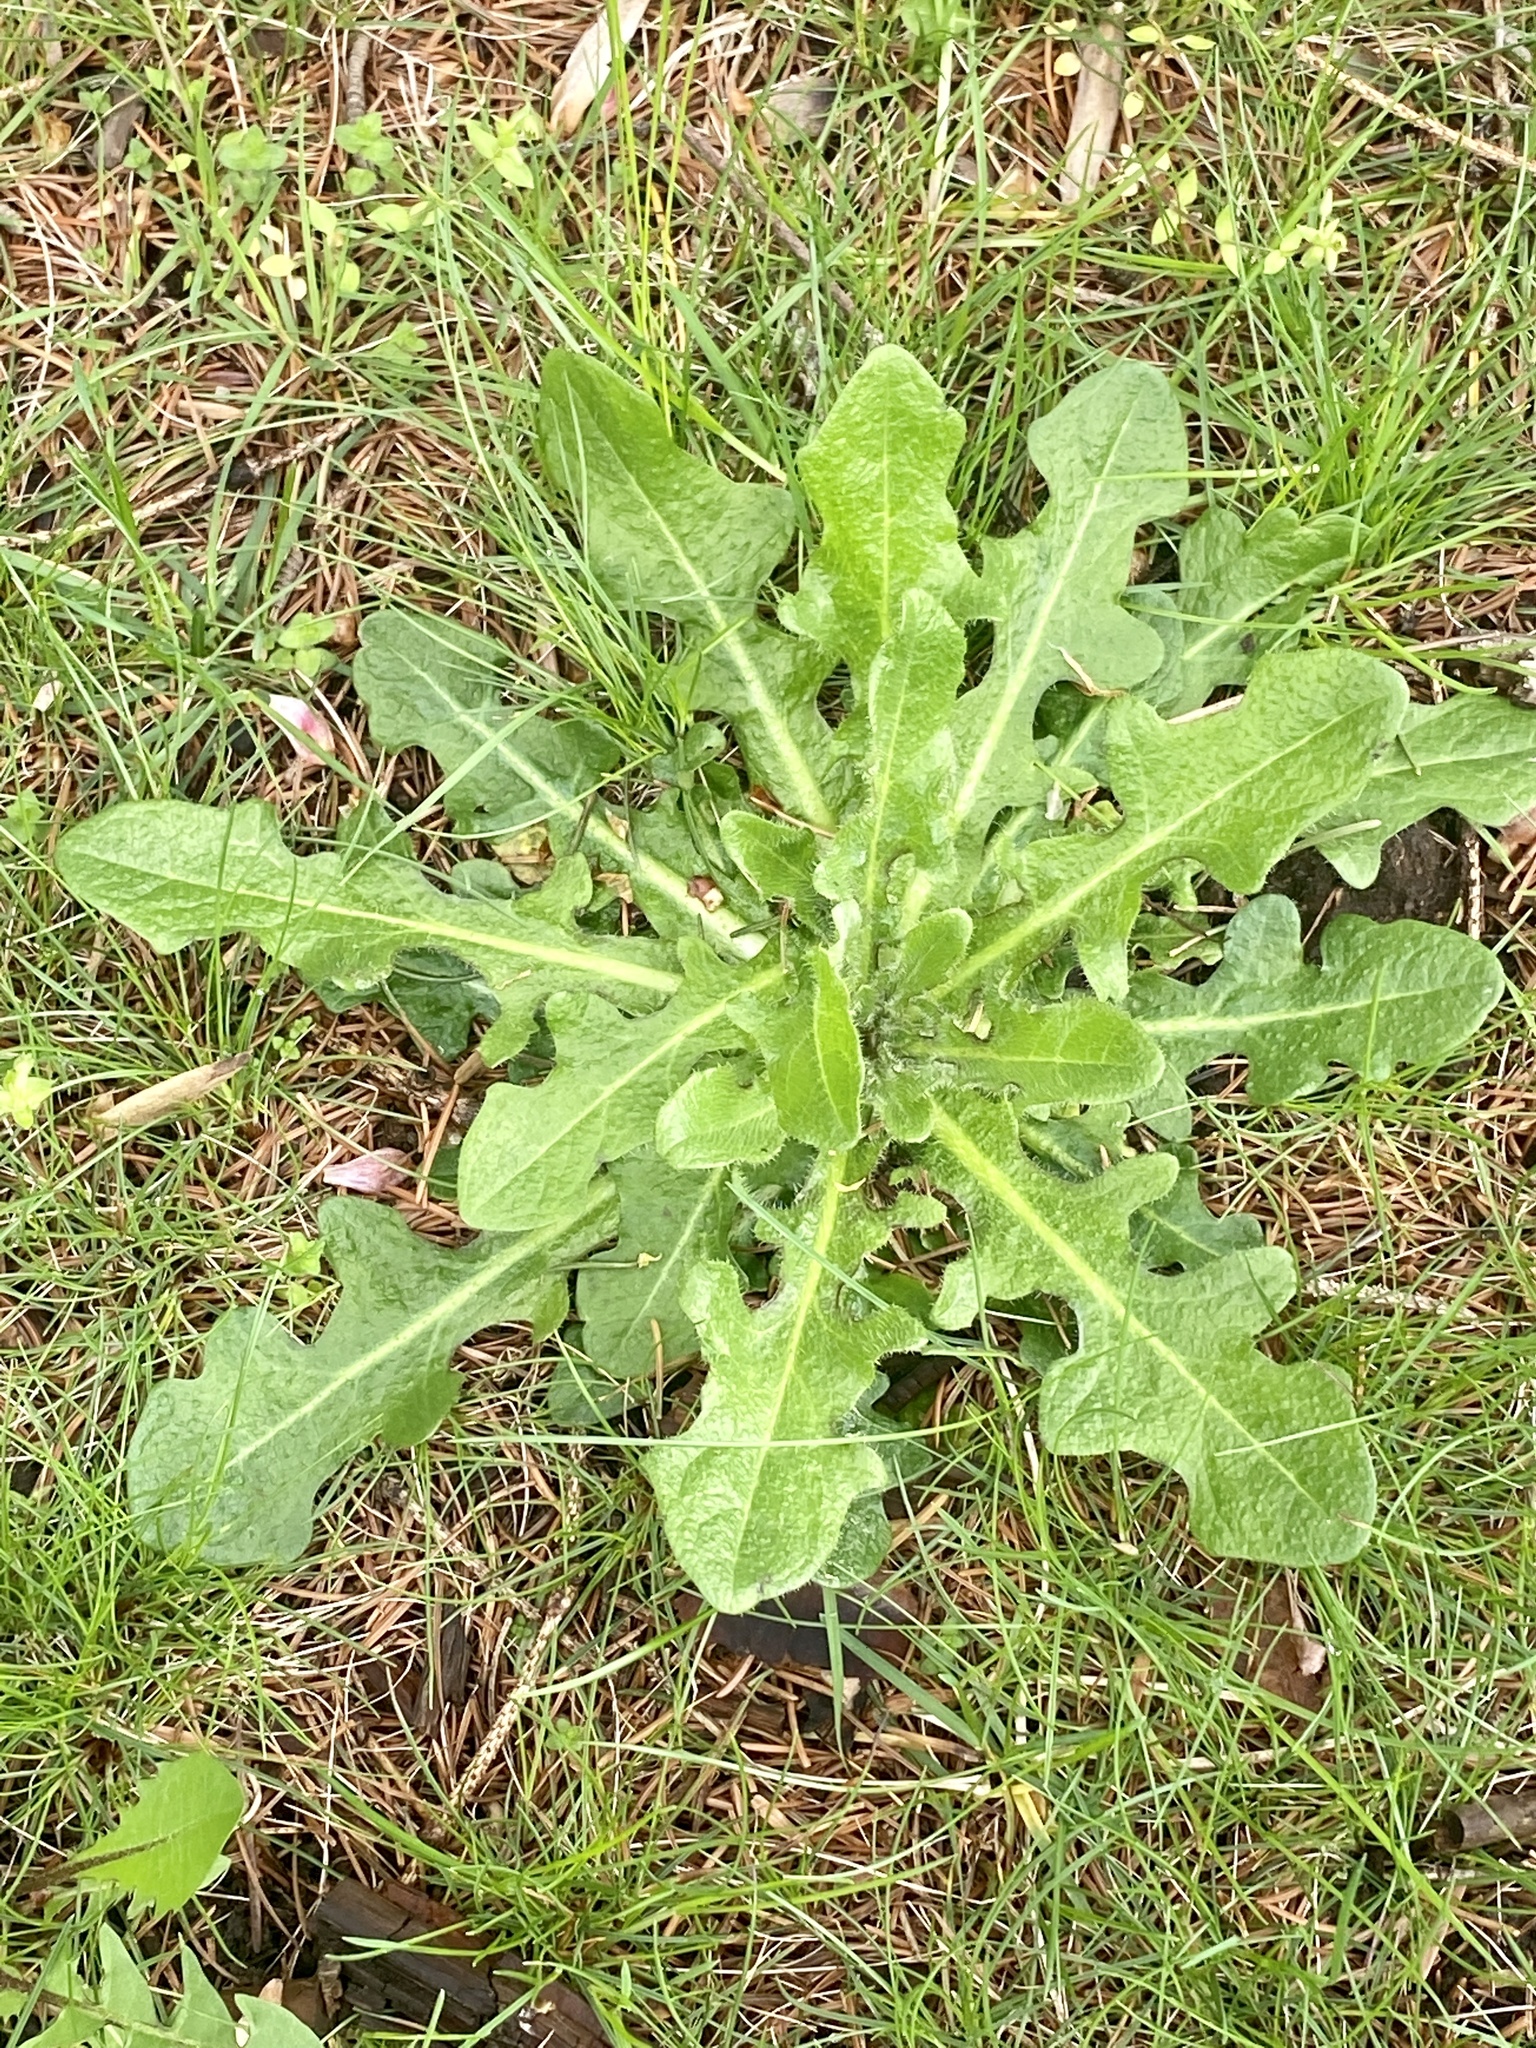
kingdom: Plantae
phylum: Tracheophyta
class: Magnoliopsida
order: Asterales
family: Asteraceae
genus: Hypochaeris
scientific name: Hypochaeris radicata
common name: Flatweed
